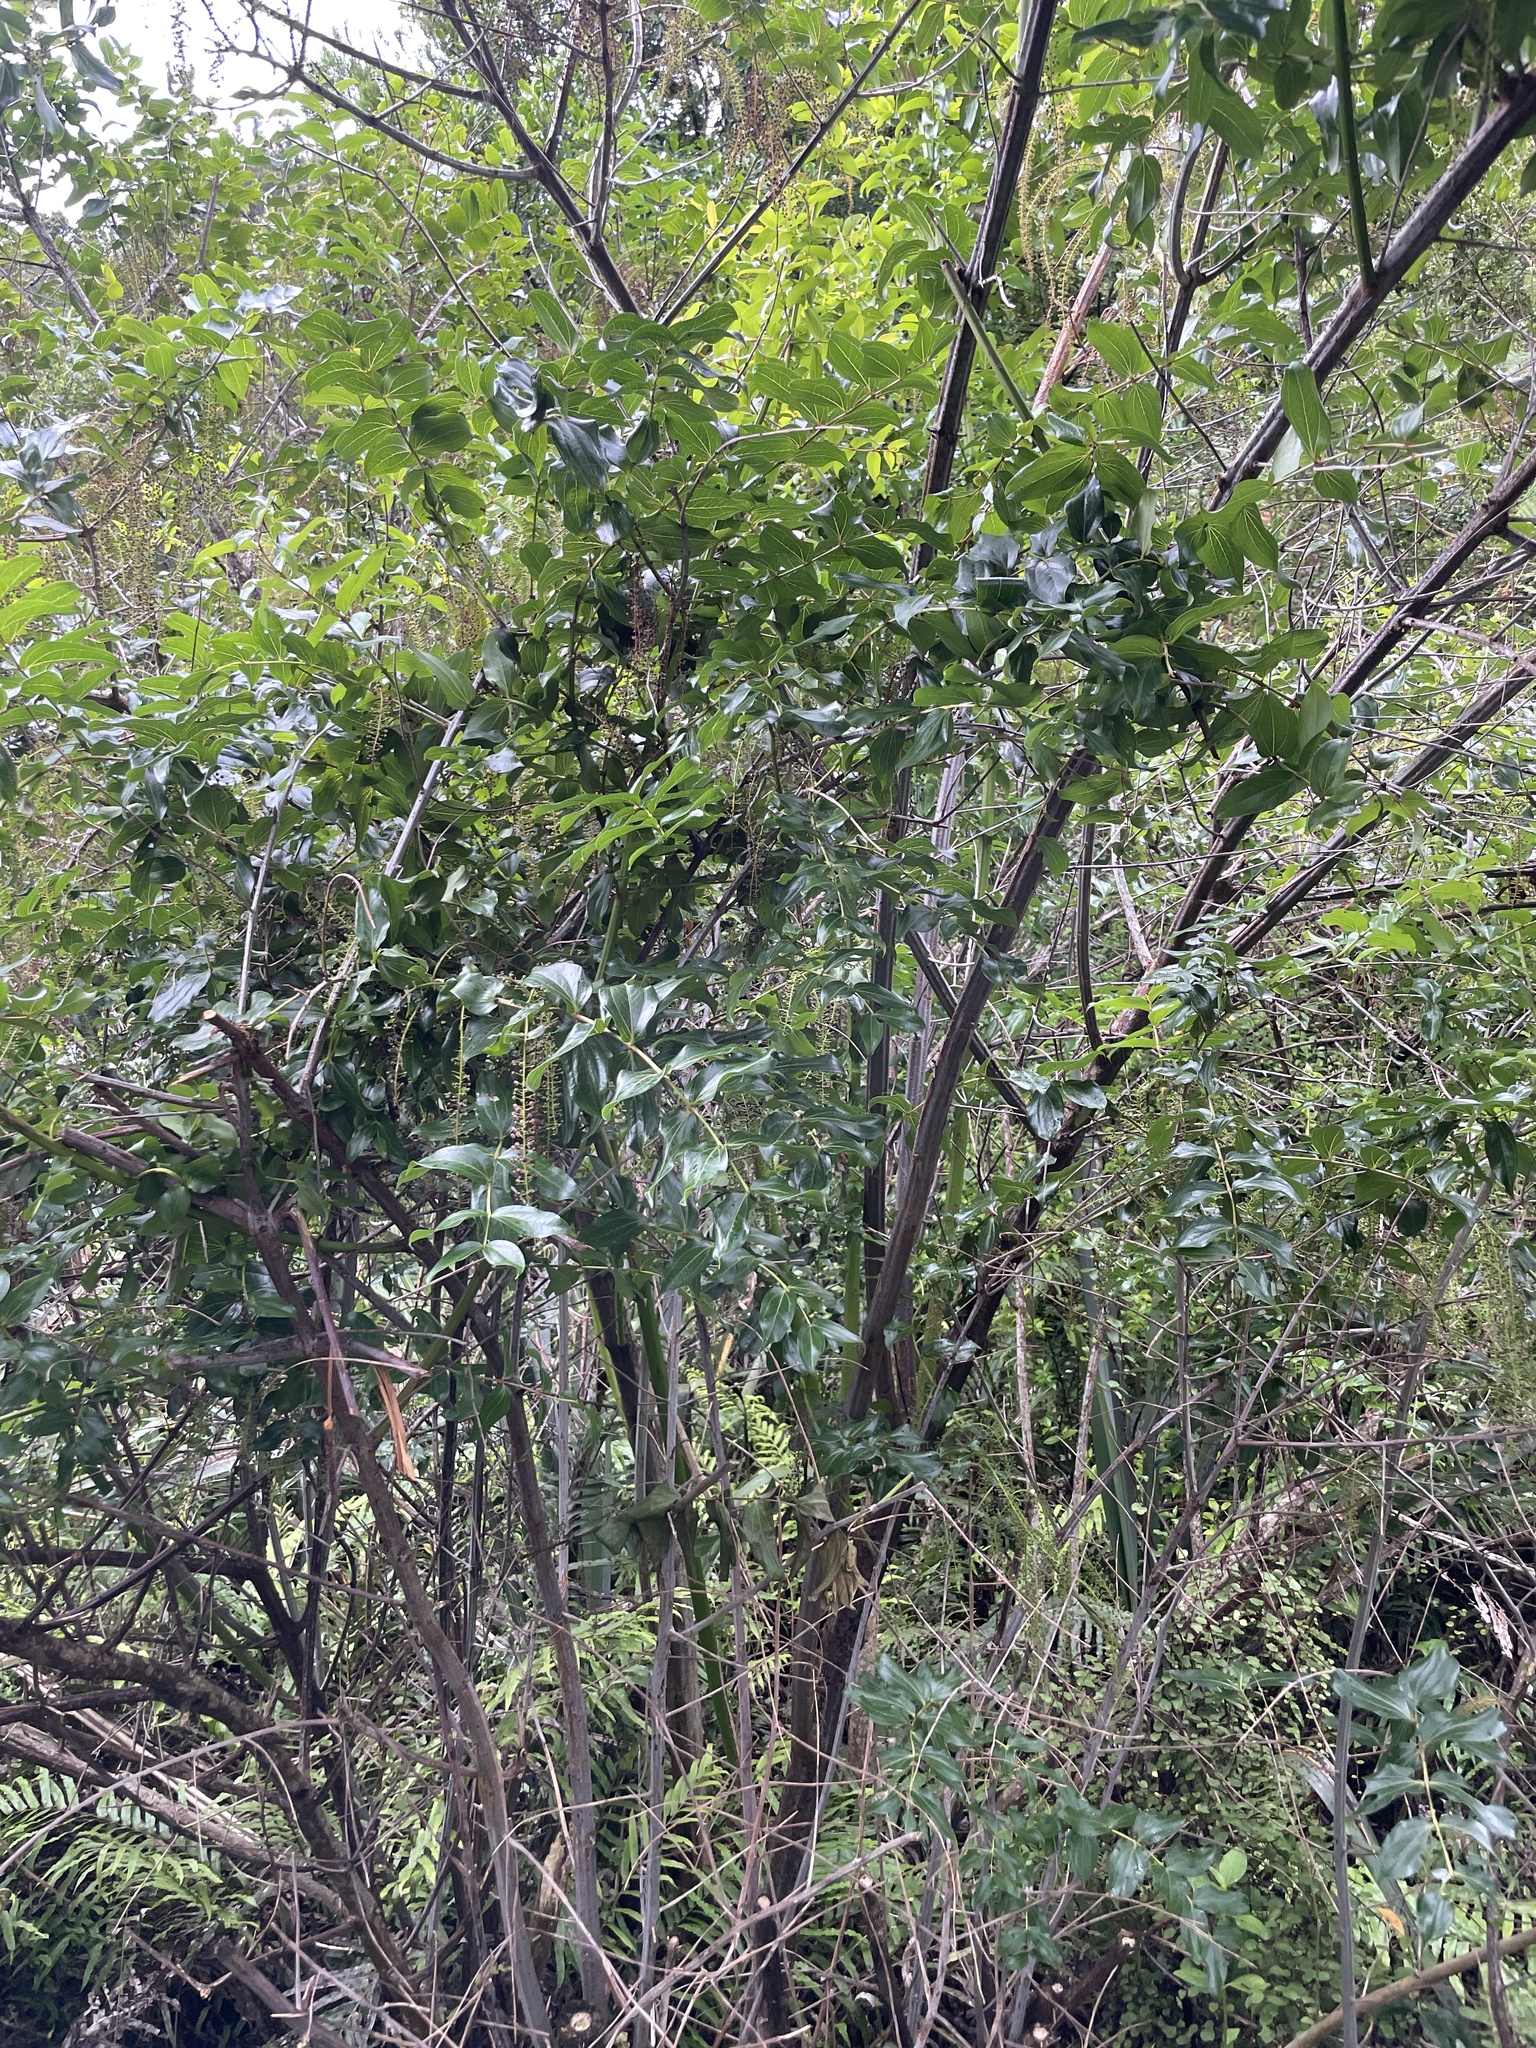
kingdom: Plantae
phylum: Tracheophyta
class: Magnoliopsida
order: Cucurbitales
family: Coriariaceae
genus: Coriaria
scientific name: Coriaria arborea
